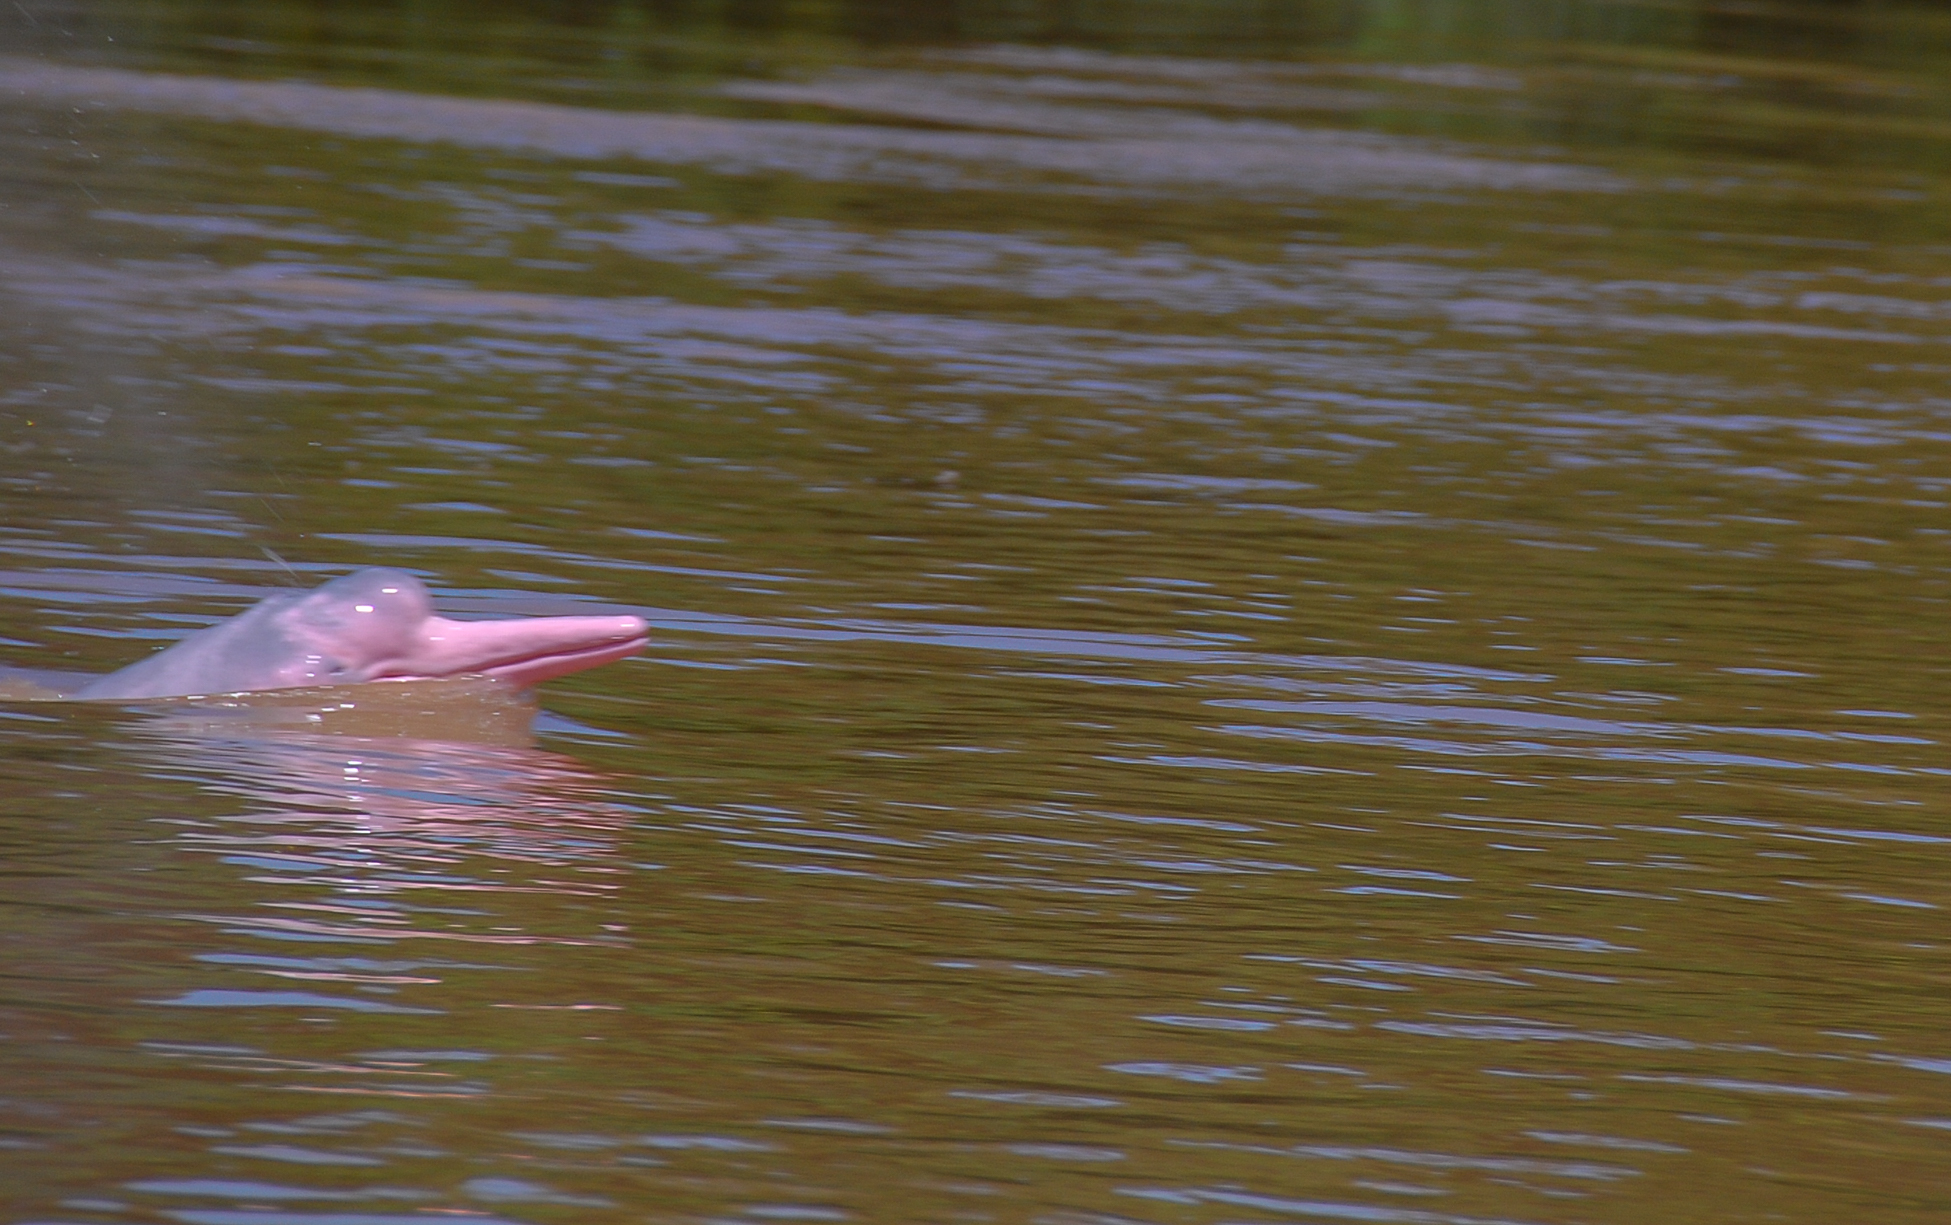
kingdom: Animalia
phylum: Chordata
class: Mammalia
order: Cetacea
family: Iniidae
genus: Inia
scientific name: Inia geoffrensis
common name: Amazon river dolphin
